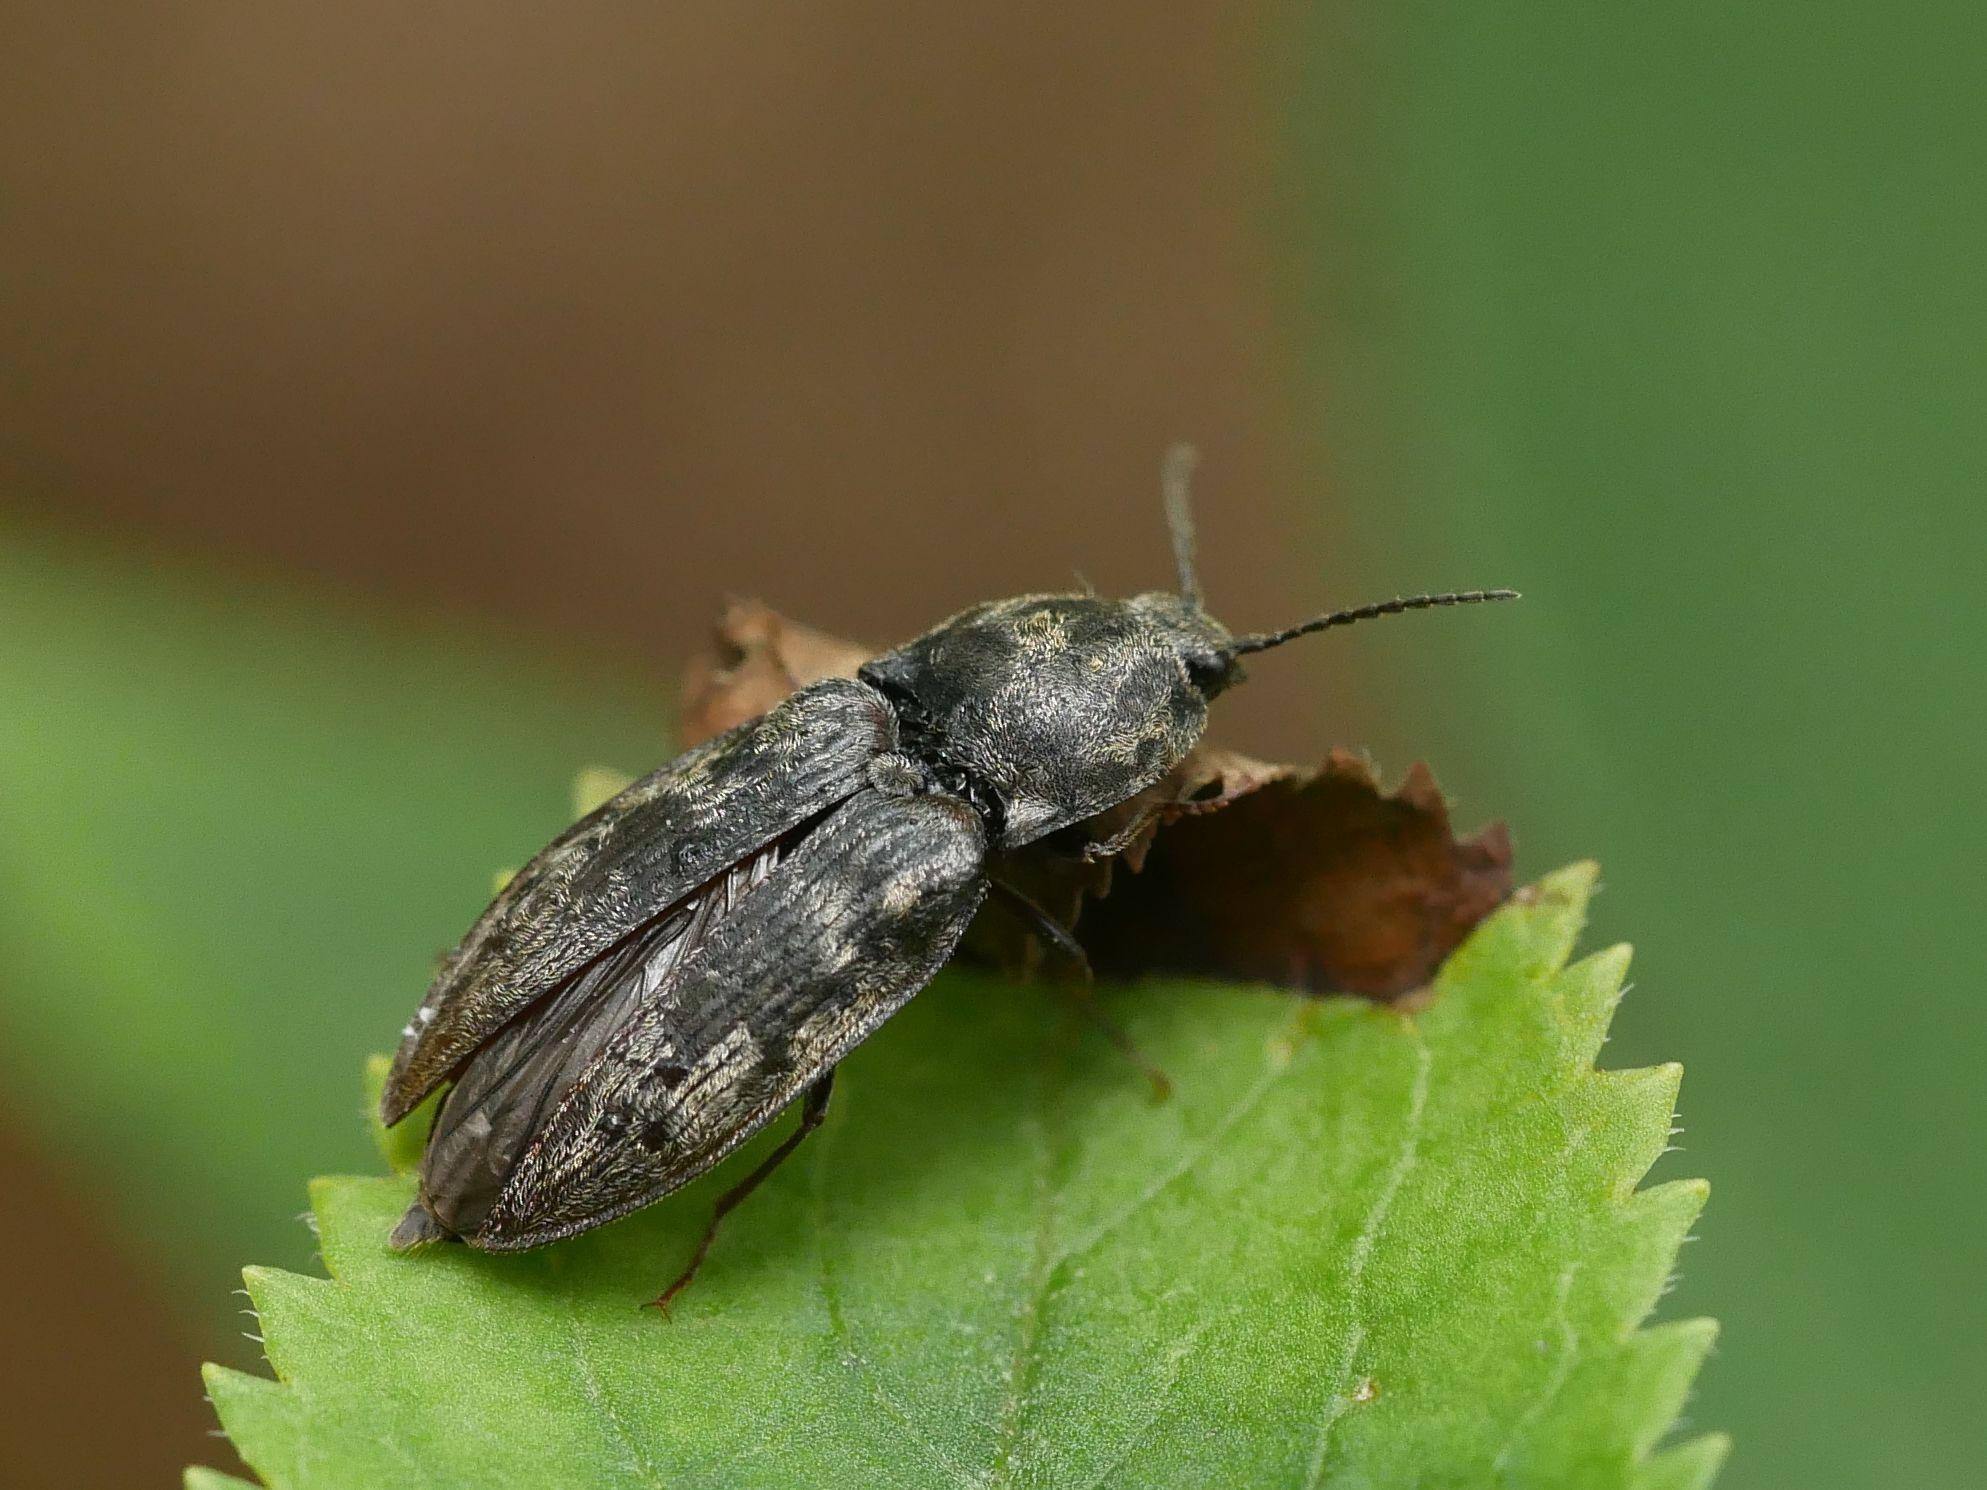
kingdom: Animalia
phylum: Arthropoda
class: Insecta
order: Coleoptera
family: Elateridae
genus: Prosternon
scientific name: Prosternon tessellatum
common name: Chequered click beetle
